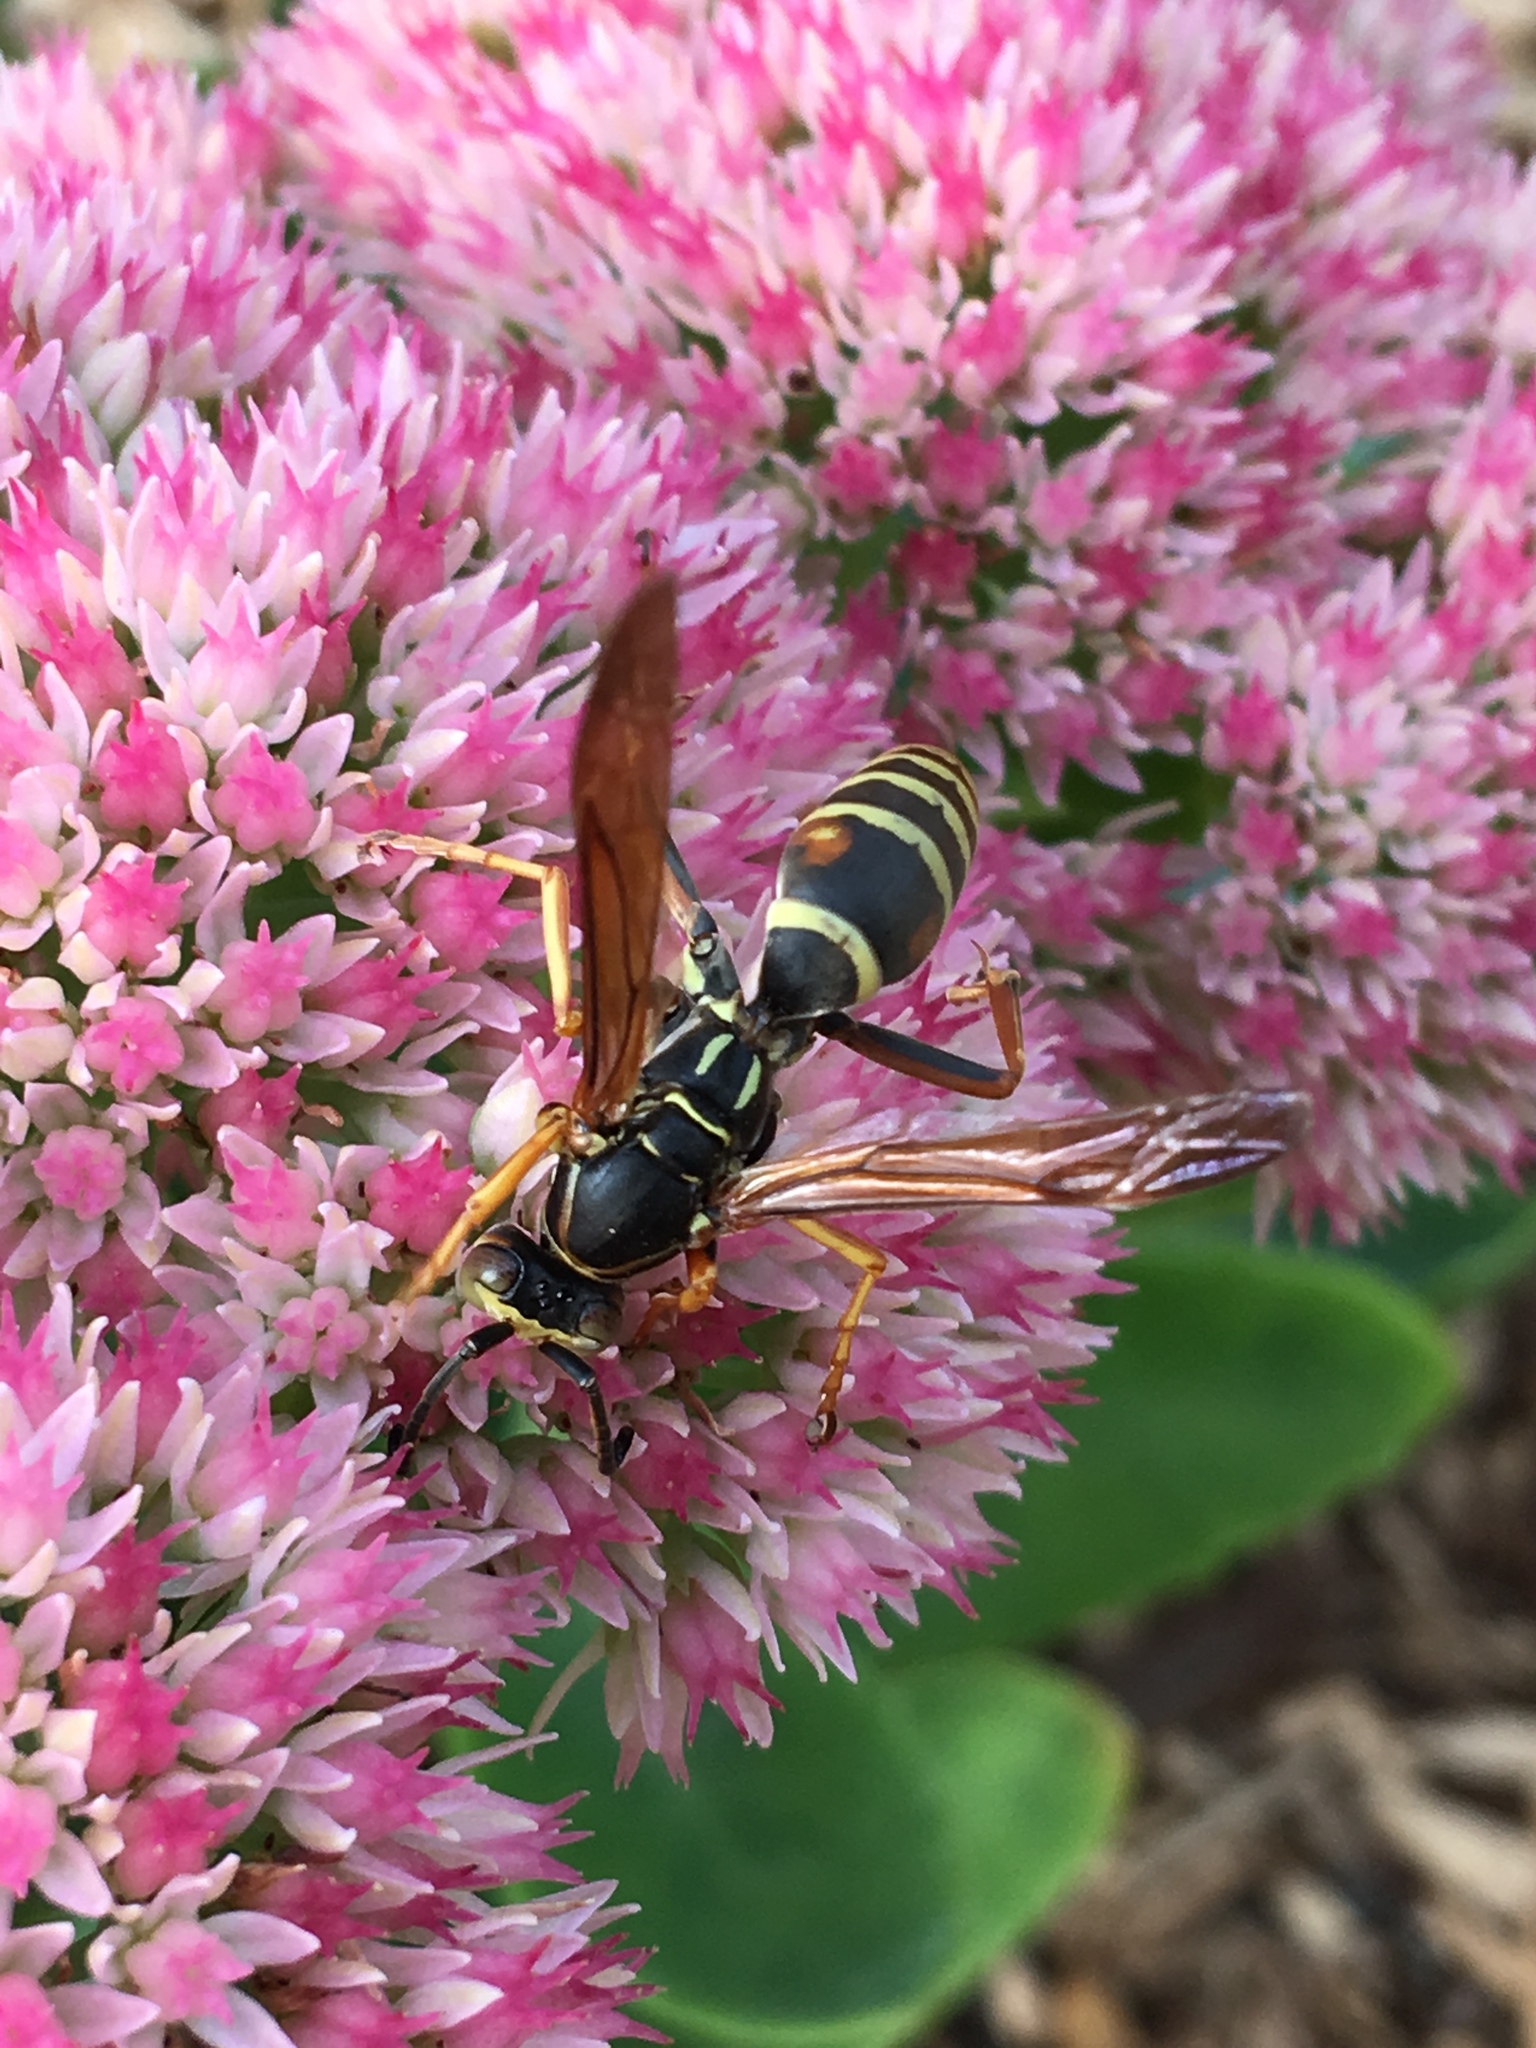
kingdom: Animalia
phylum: Arthropoda
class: Insecta
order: Hymenoptera
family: Eumenidae
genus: Polistes
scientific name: Polistes fuscatus
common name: Dark paper wasp
